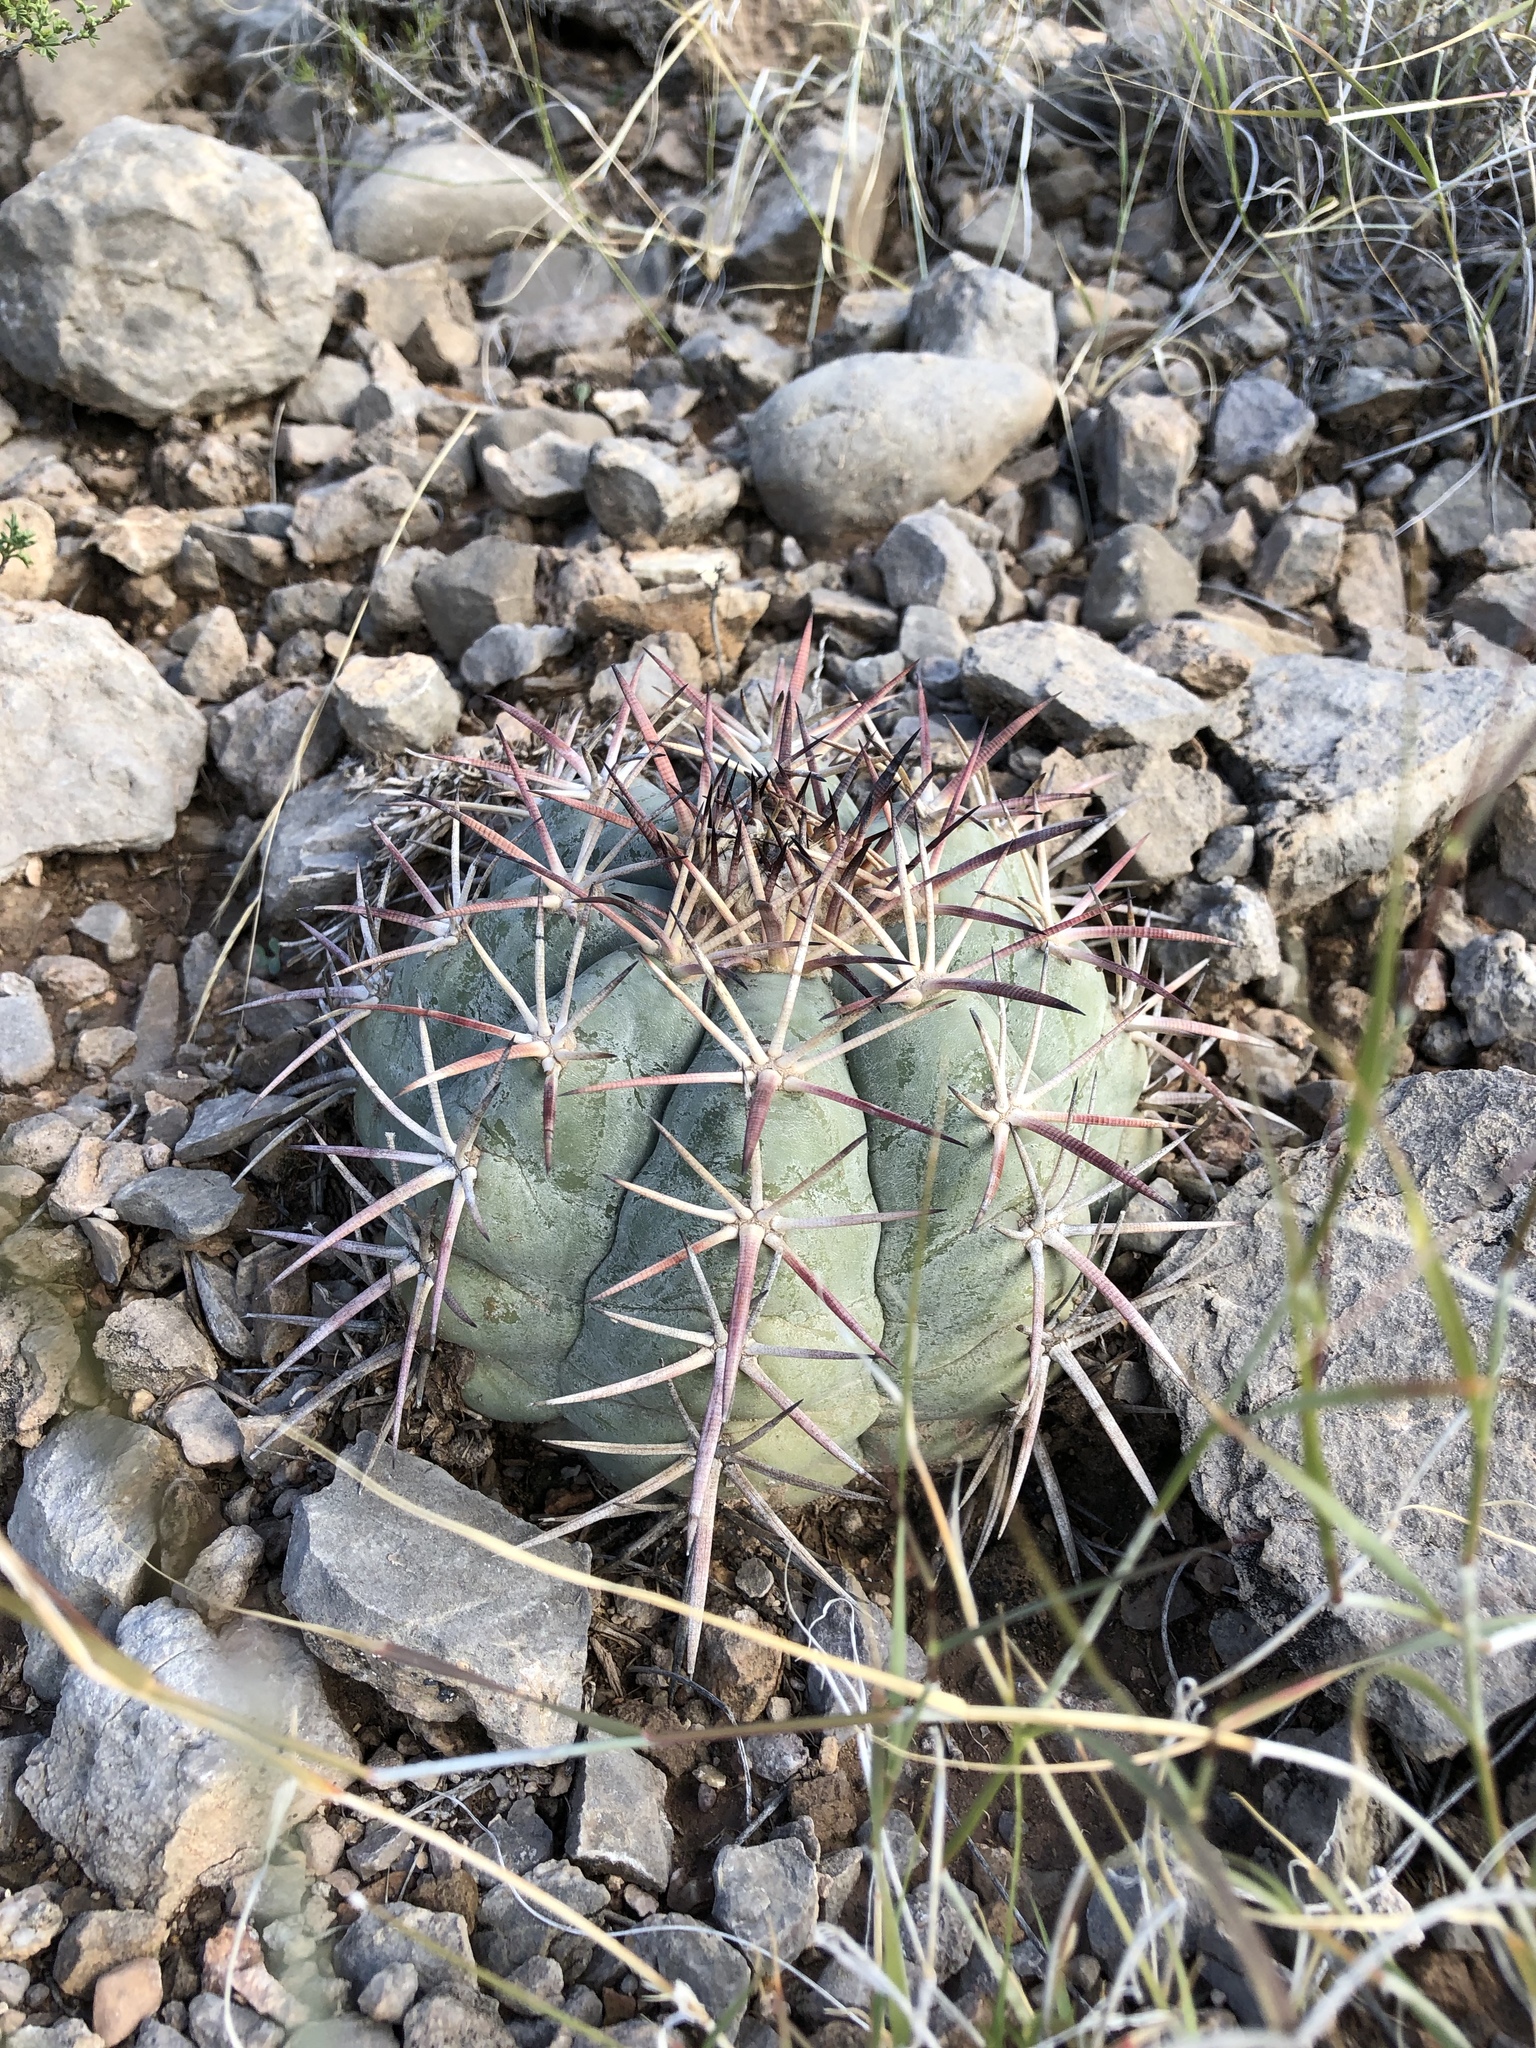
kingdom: Plantae
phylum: Tracheophyta
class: Magnoliopsida
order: Caryophyllales
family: Cactaceae
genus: Echinocactus
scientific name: Echinocactus horizonthalonius
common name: Devilshead
